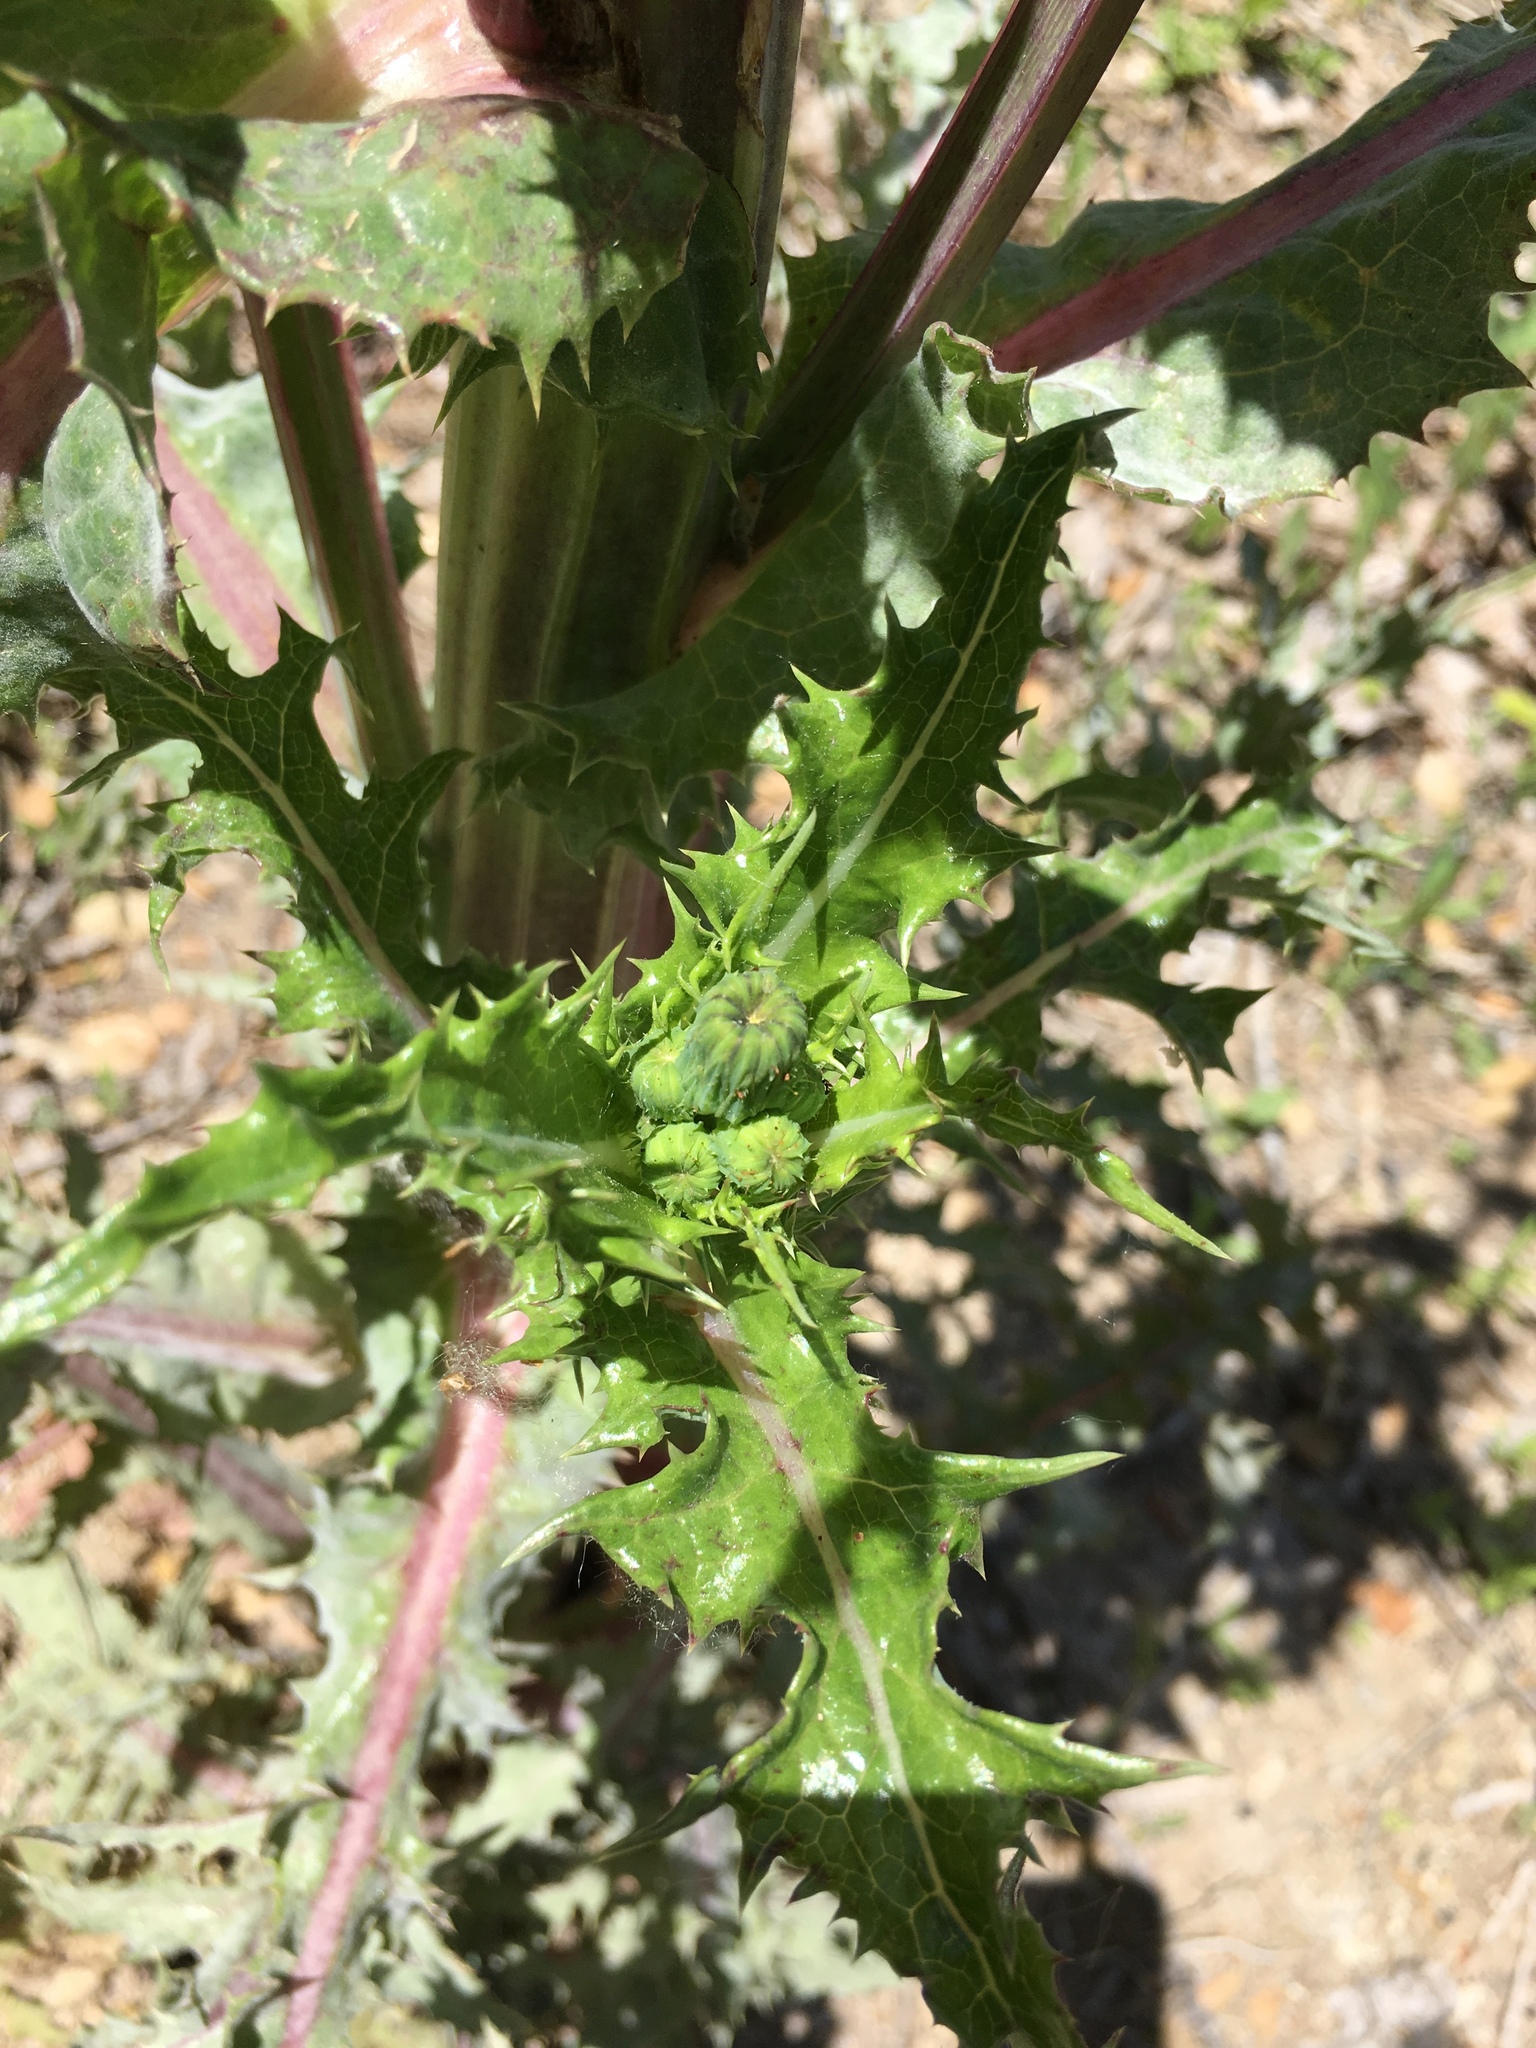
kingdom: Plantae
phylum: Tracheophyta
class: Magnoliopsida
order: Asterales
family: Asteraceae
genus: Sonchus
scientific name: Sonchus asper
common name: Prickly sow-thistle
